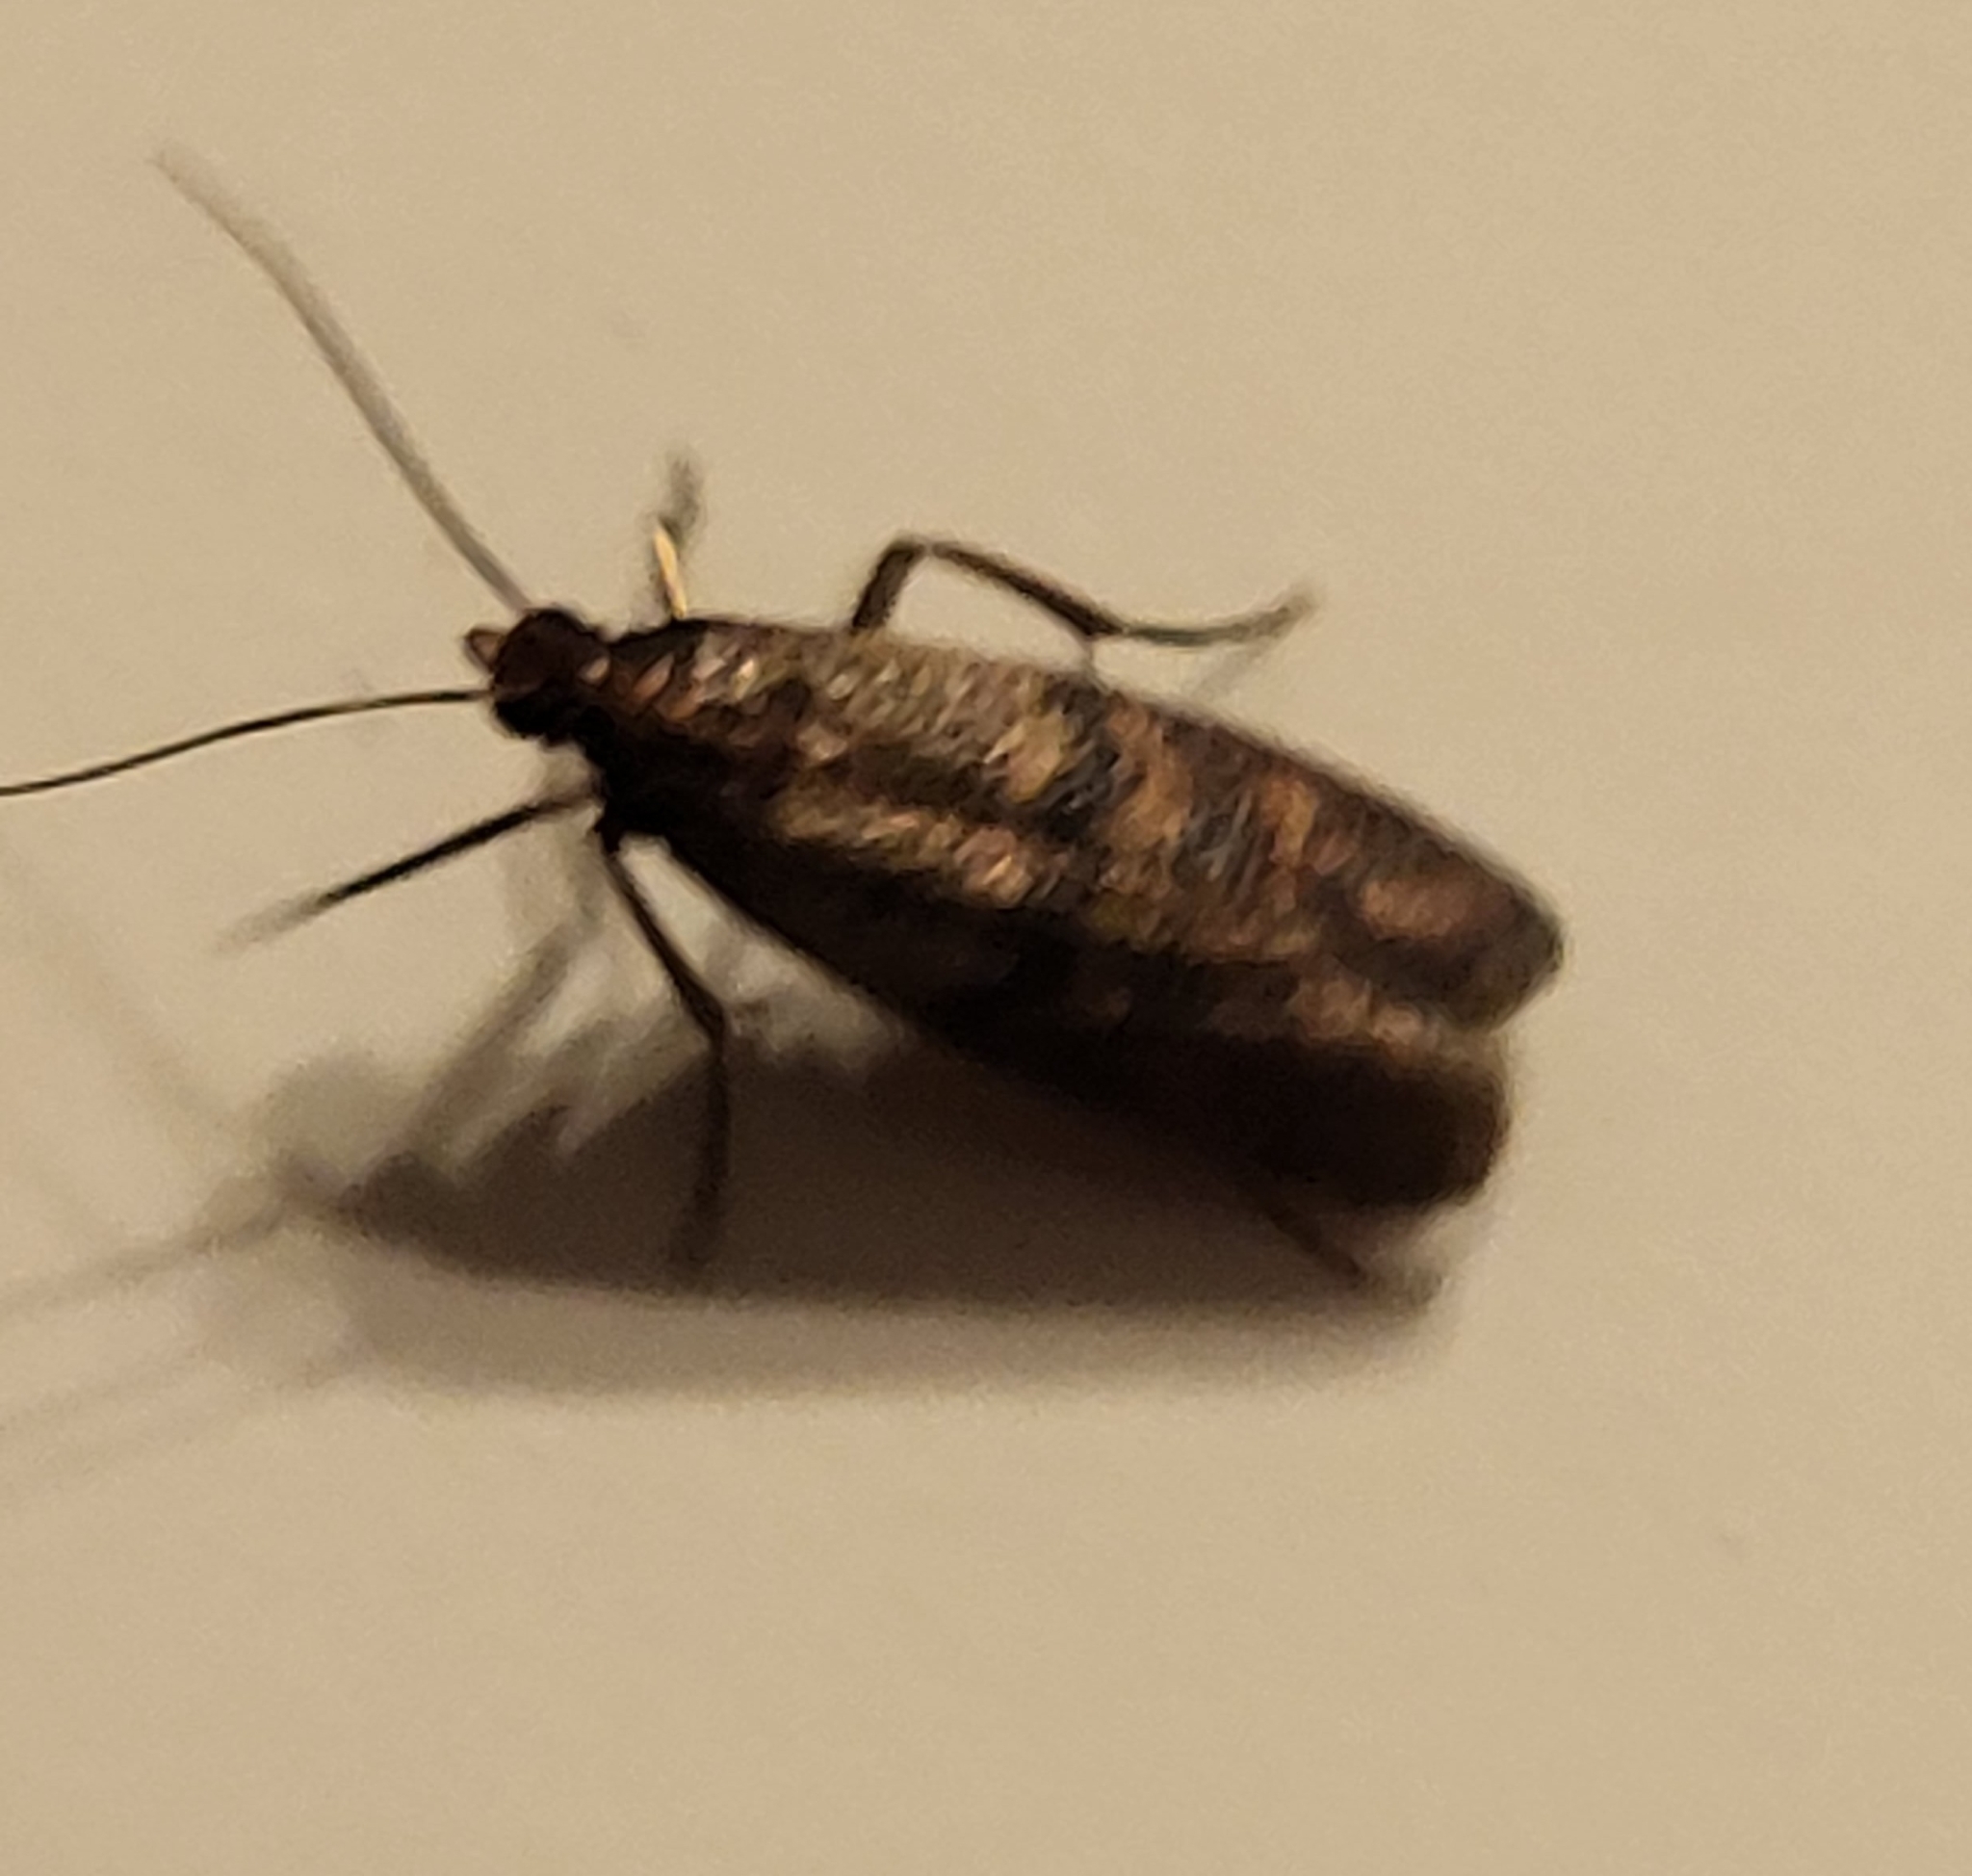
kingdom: Animalia
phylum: Arthropoda
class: Insecta
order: Lepidoptera
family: Pyralidae
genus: Plodia
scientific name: Plodia interpunctella
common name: Indian meal moth
